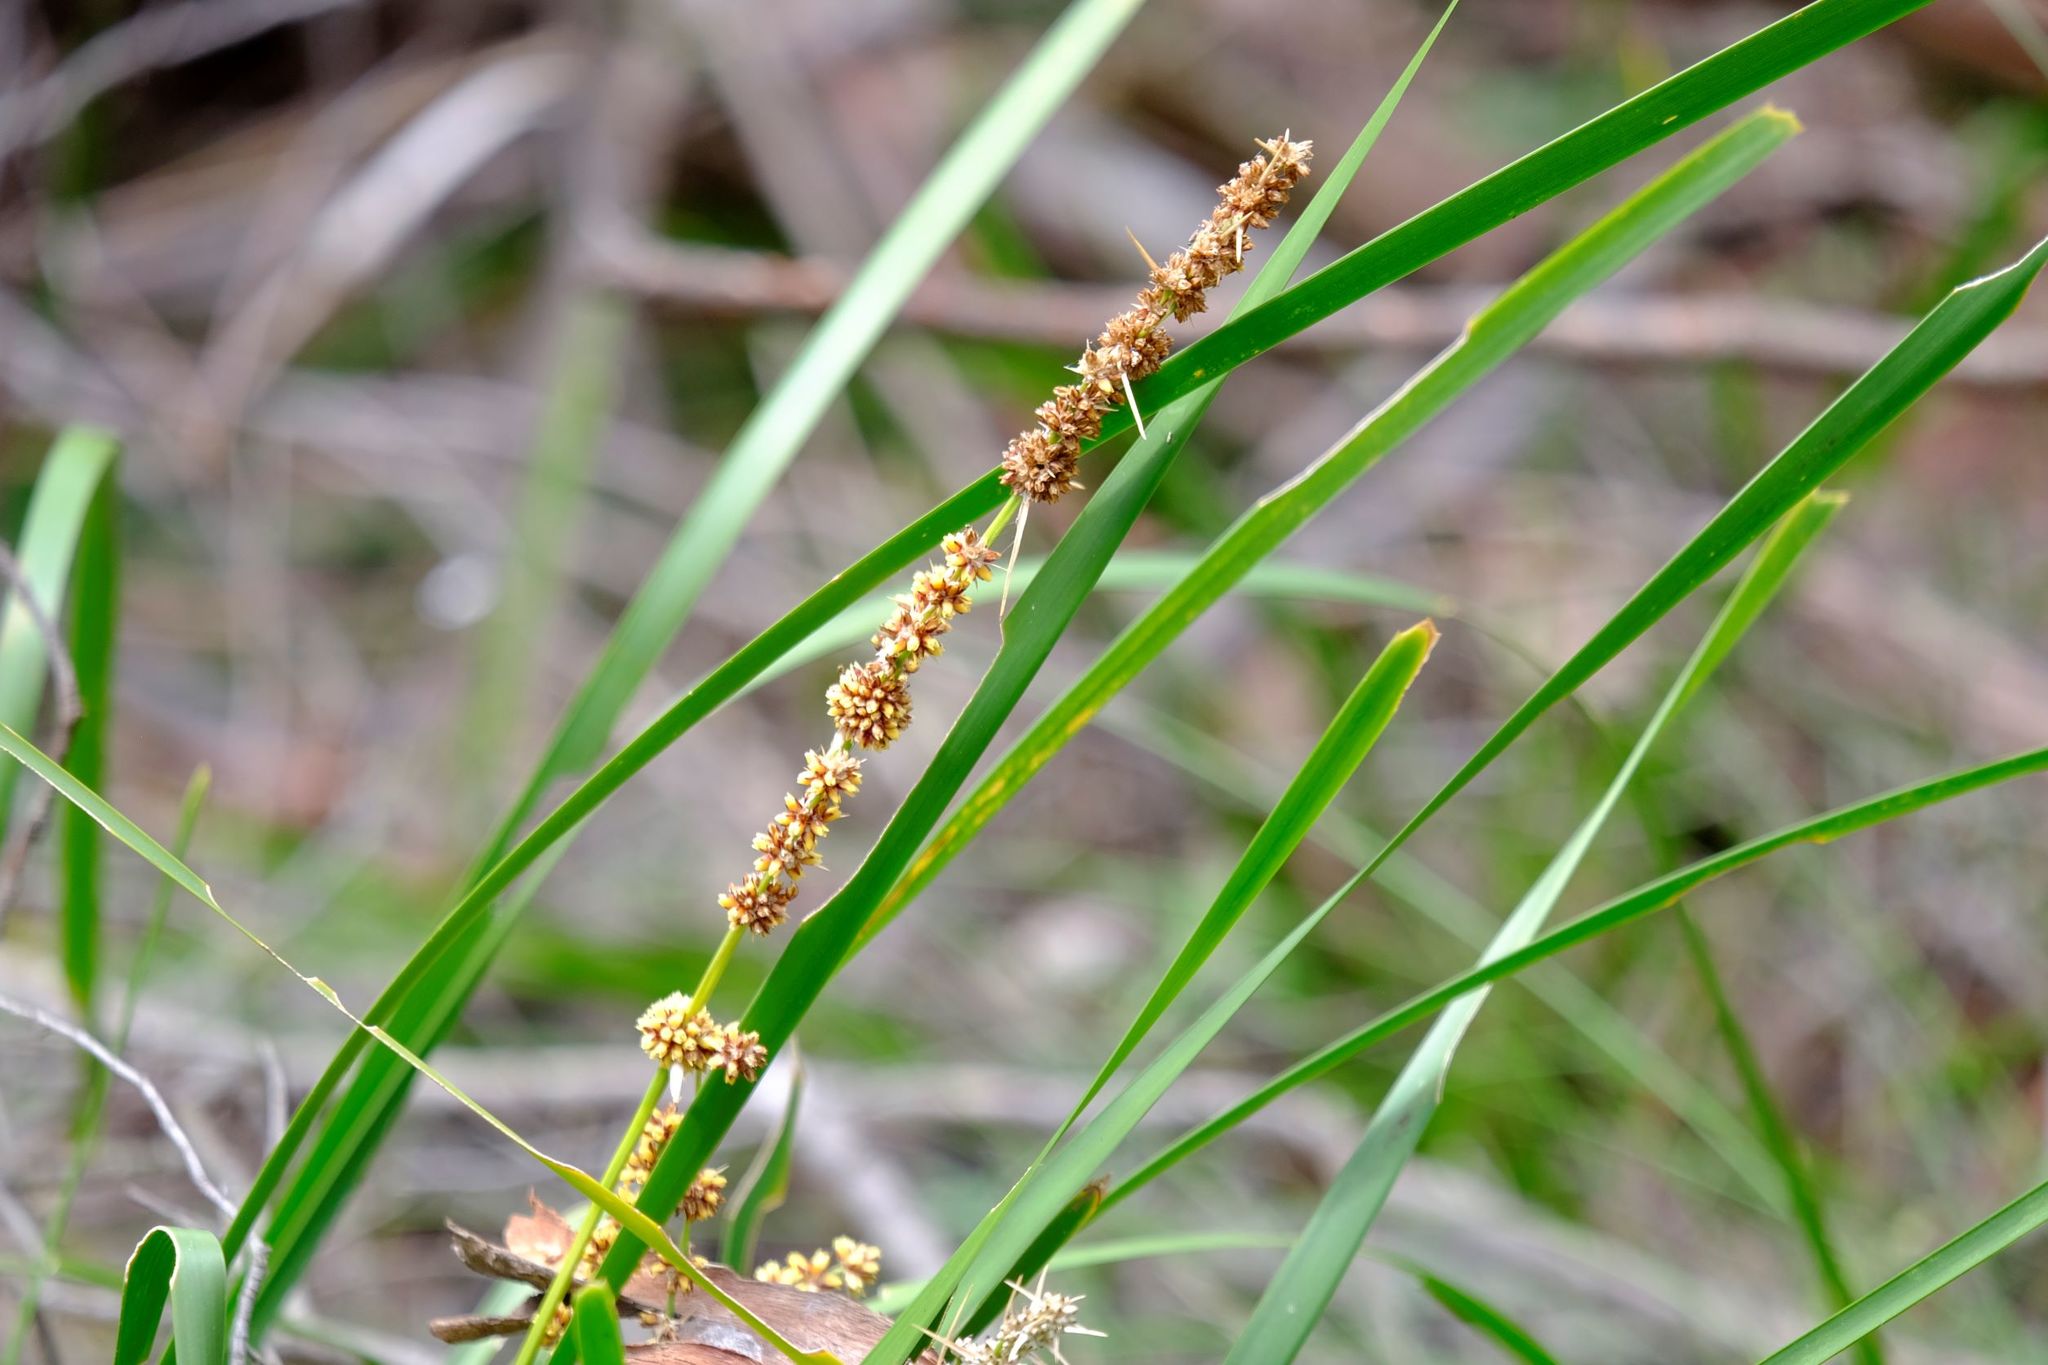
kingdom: Plantae
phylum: Tracheophyta
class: Liliopsida
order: Asparagales
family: Asparagaceae
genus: Lomandra
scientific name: Lomandra longifolia
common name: Longleaf mat-rush
